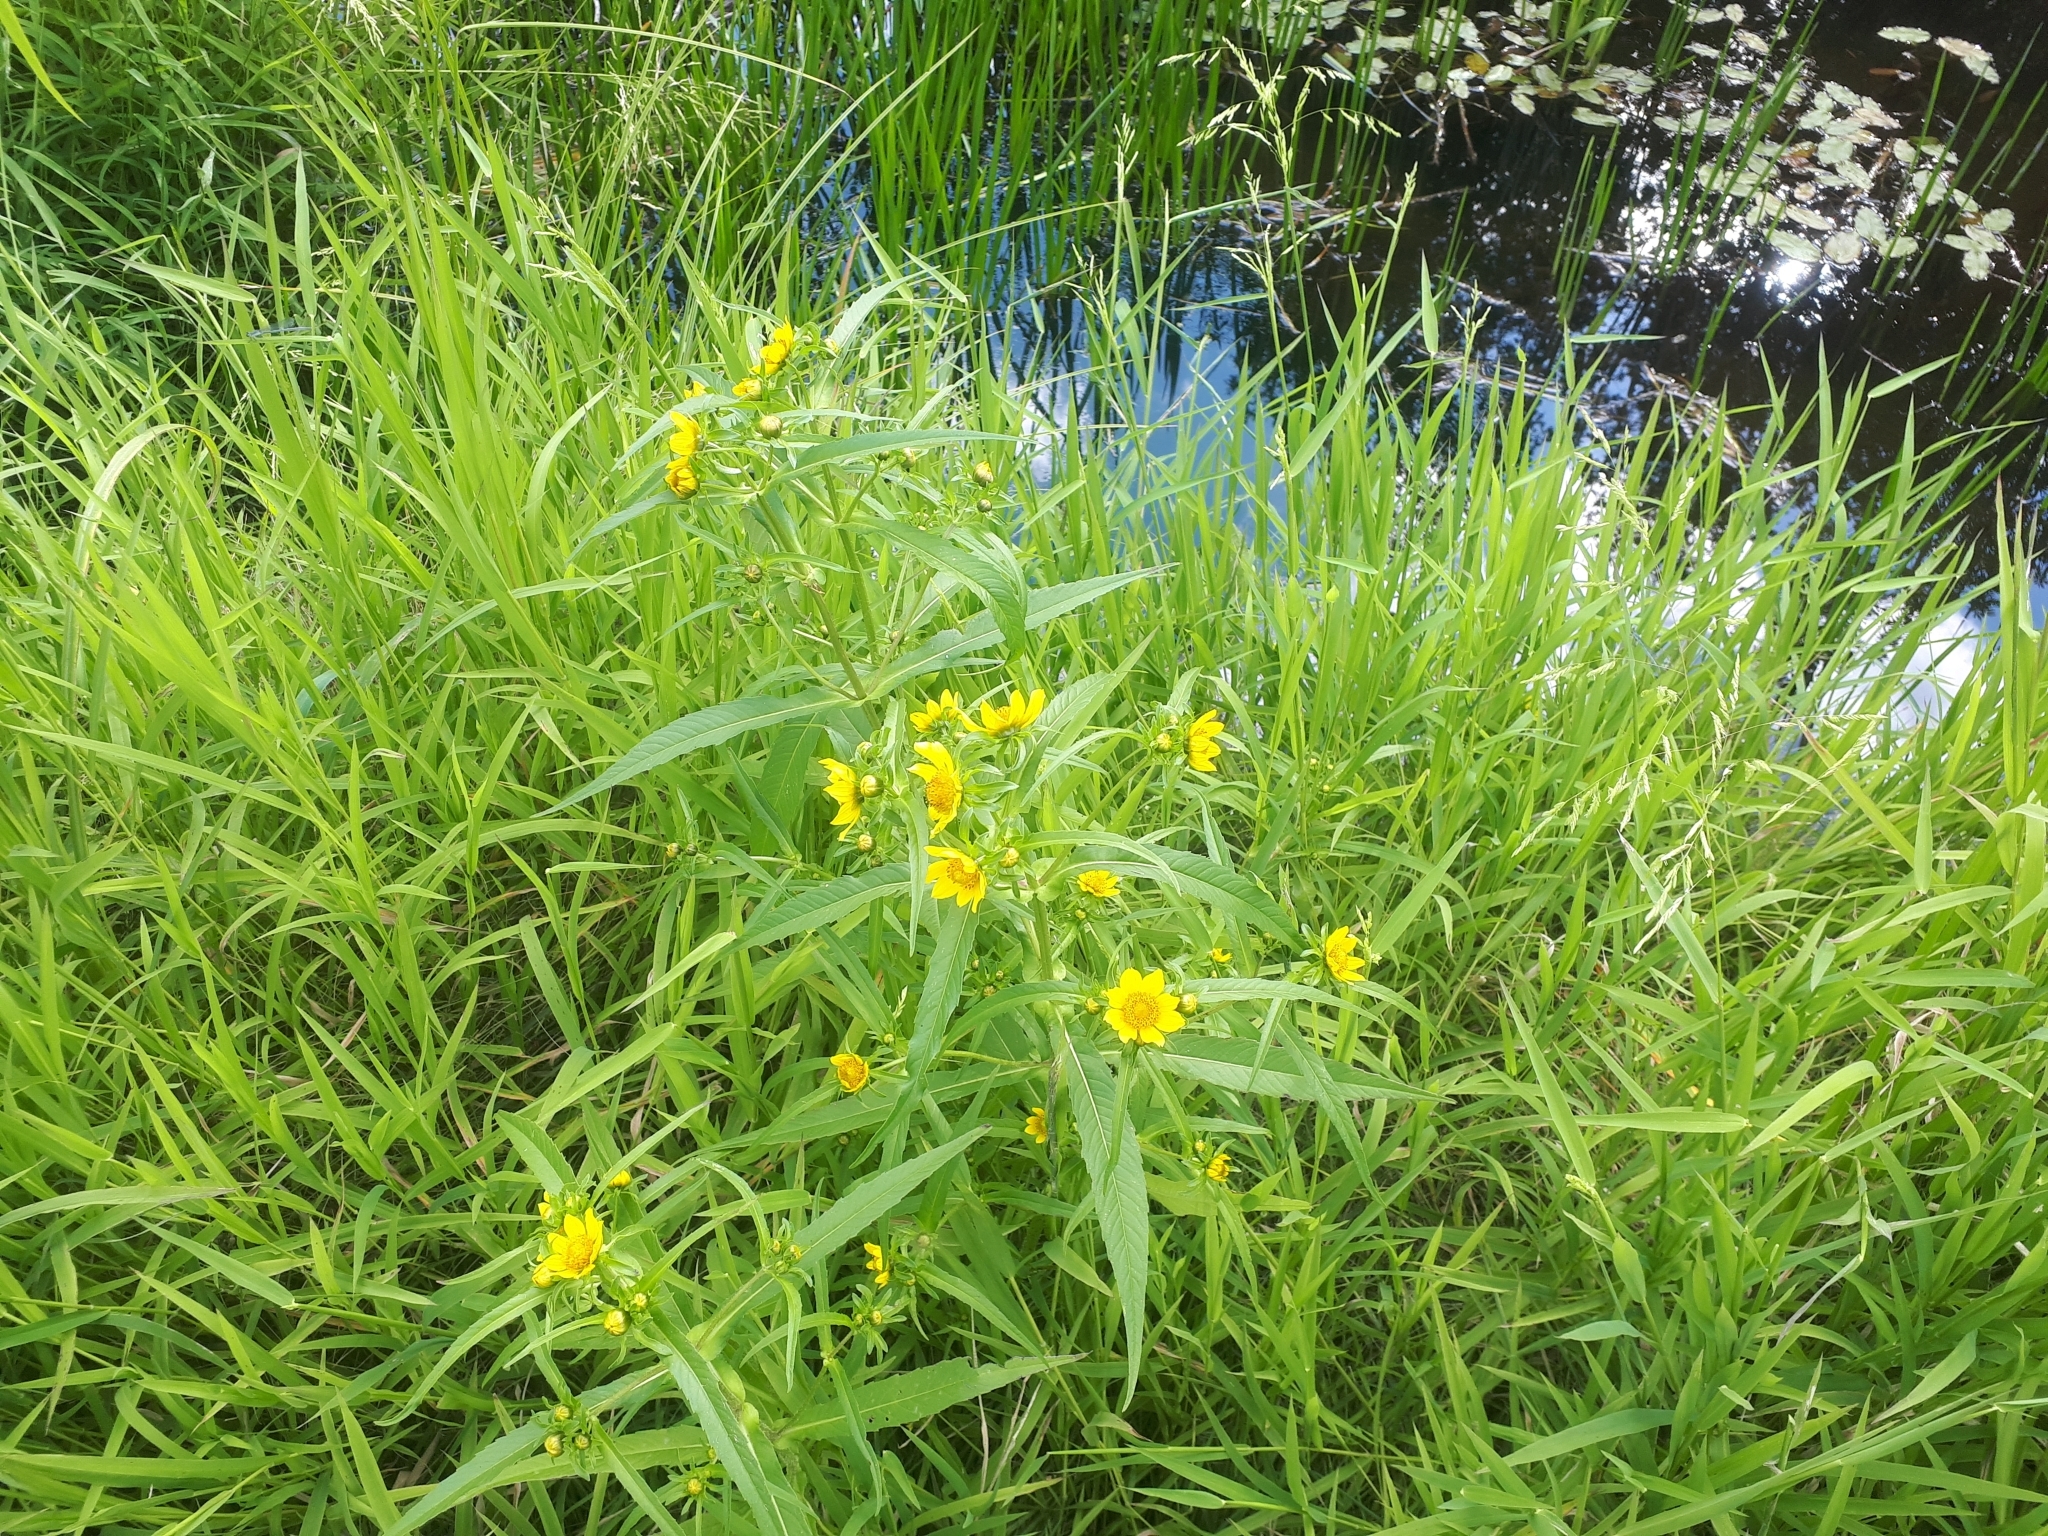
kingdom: Plantae
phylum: Tracheophyta
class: Magnoliopsida
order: Asterales
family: Asteraceae
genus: Bidens
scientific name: Bidens cernua
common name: Nodding bur-marigold
